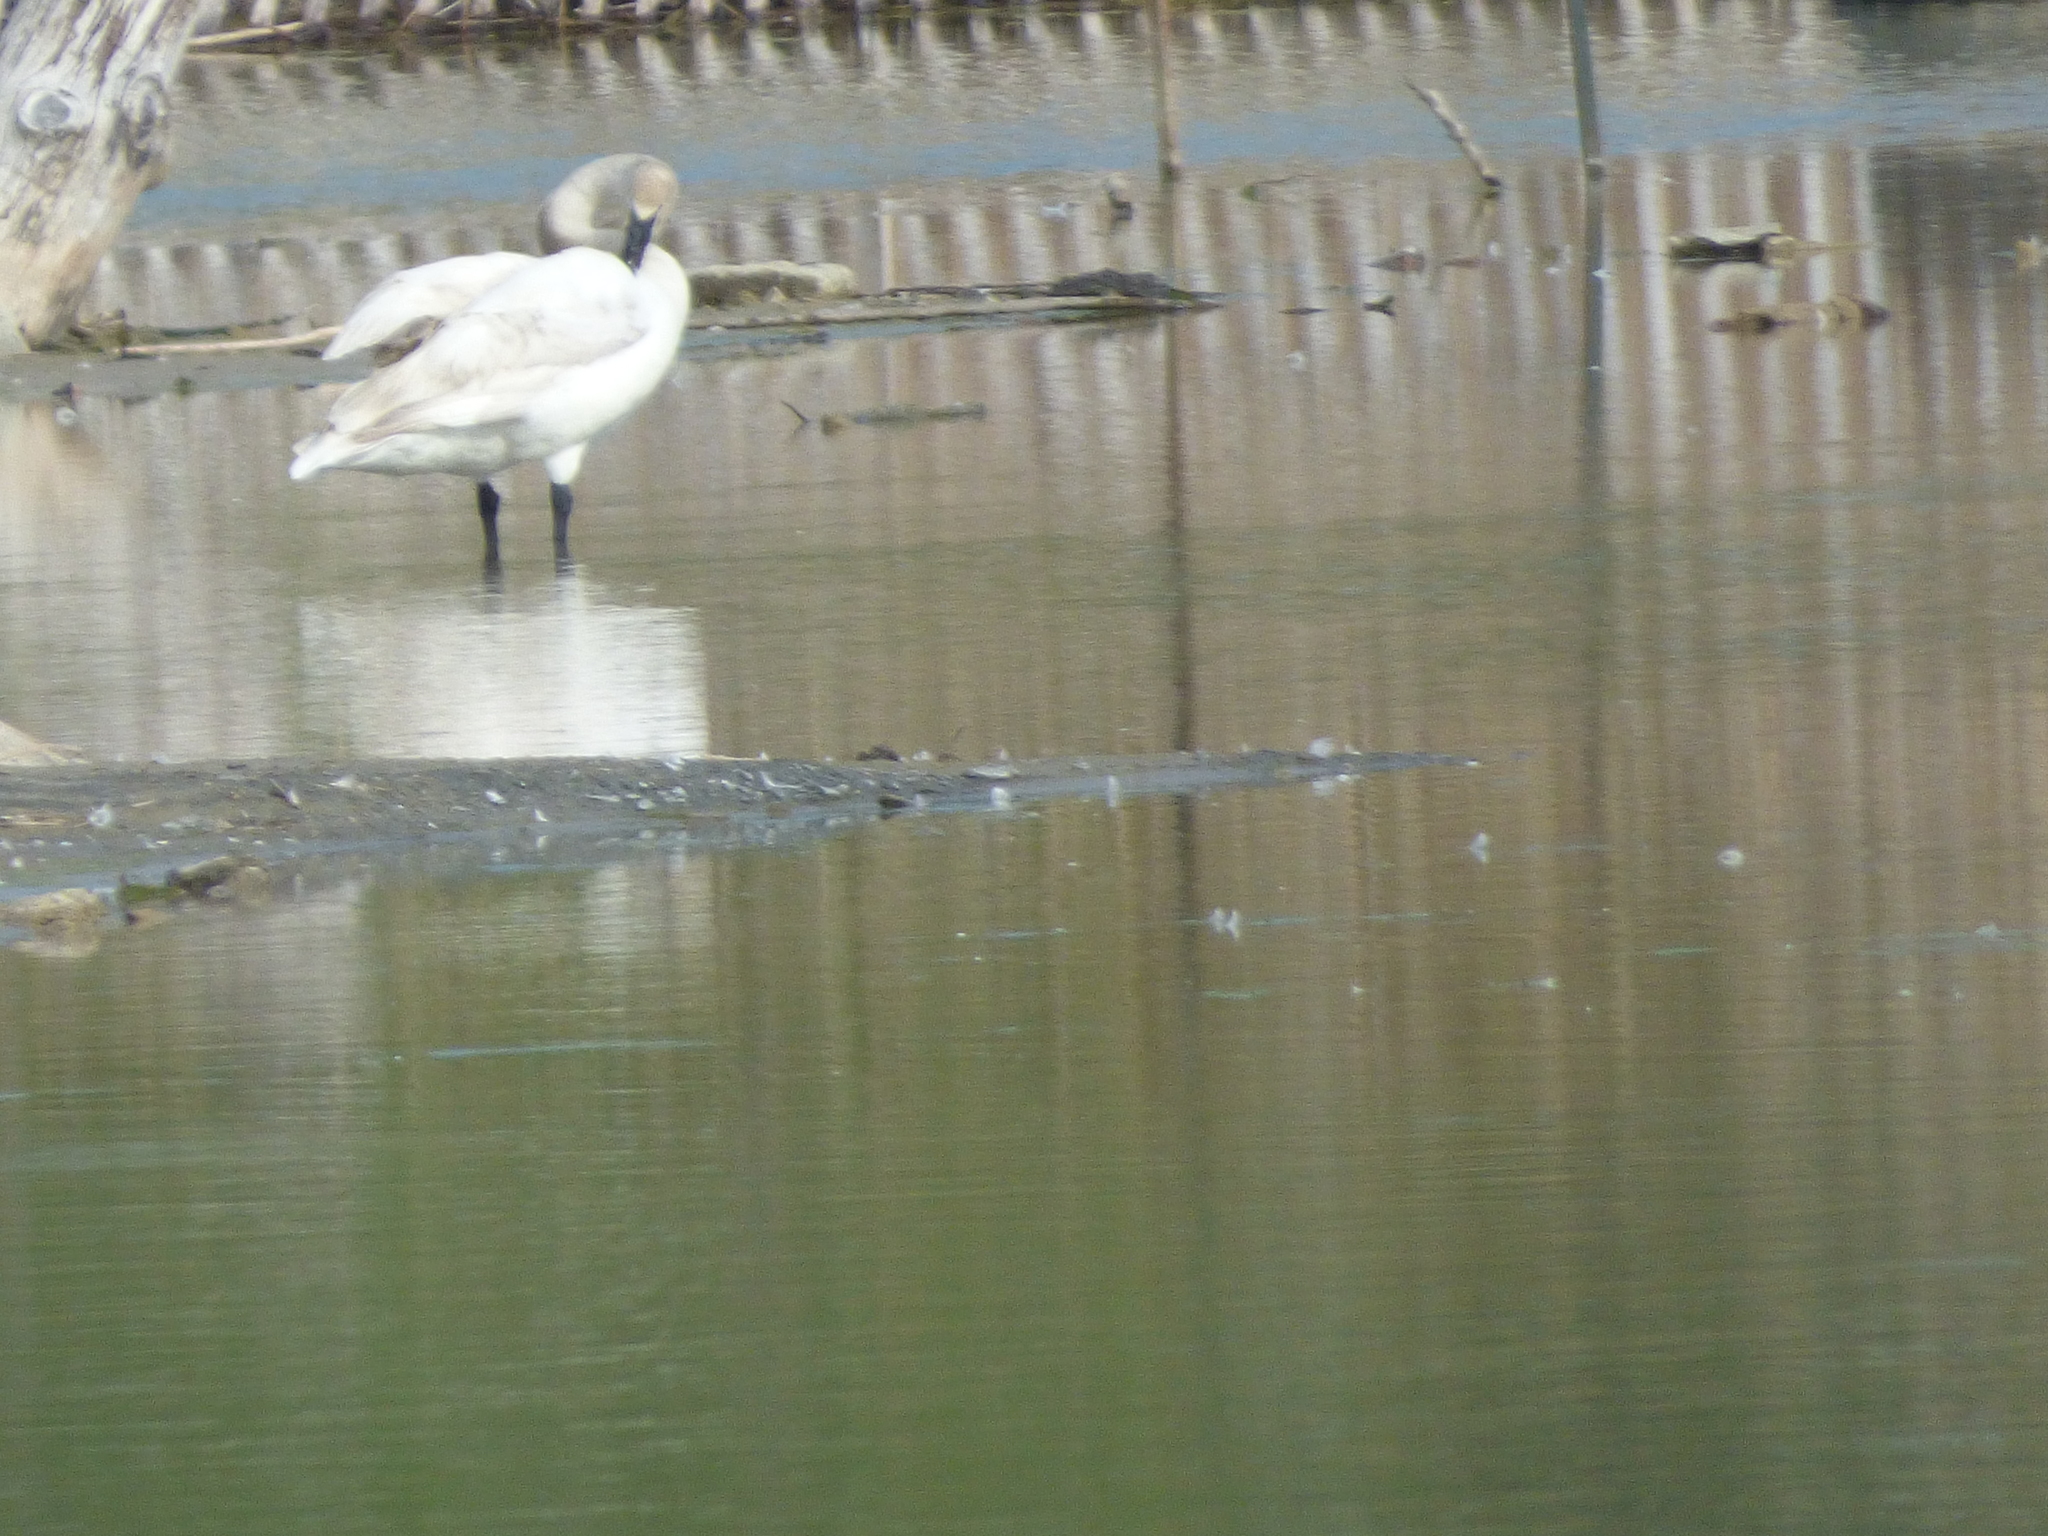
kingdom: Animalia
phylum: Chordata
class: Aves
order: Anseriformes
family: Anatidae
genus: Cygnus
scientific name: Cygnus buccinator
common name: Trumpeter swan
